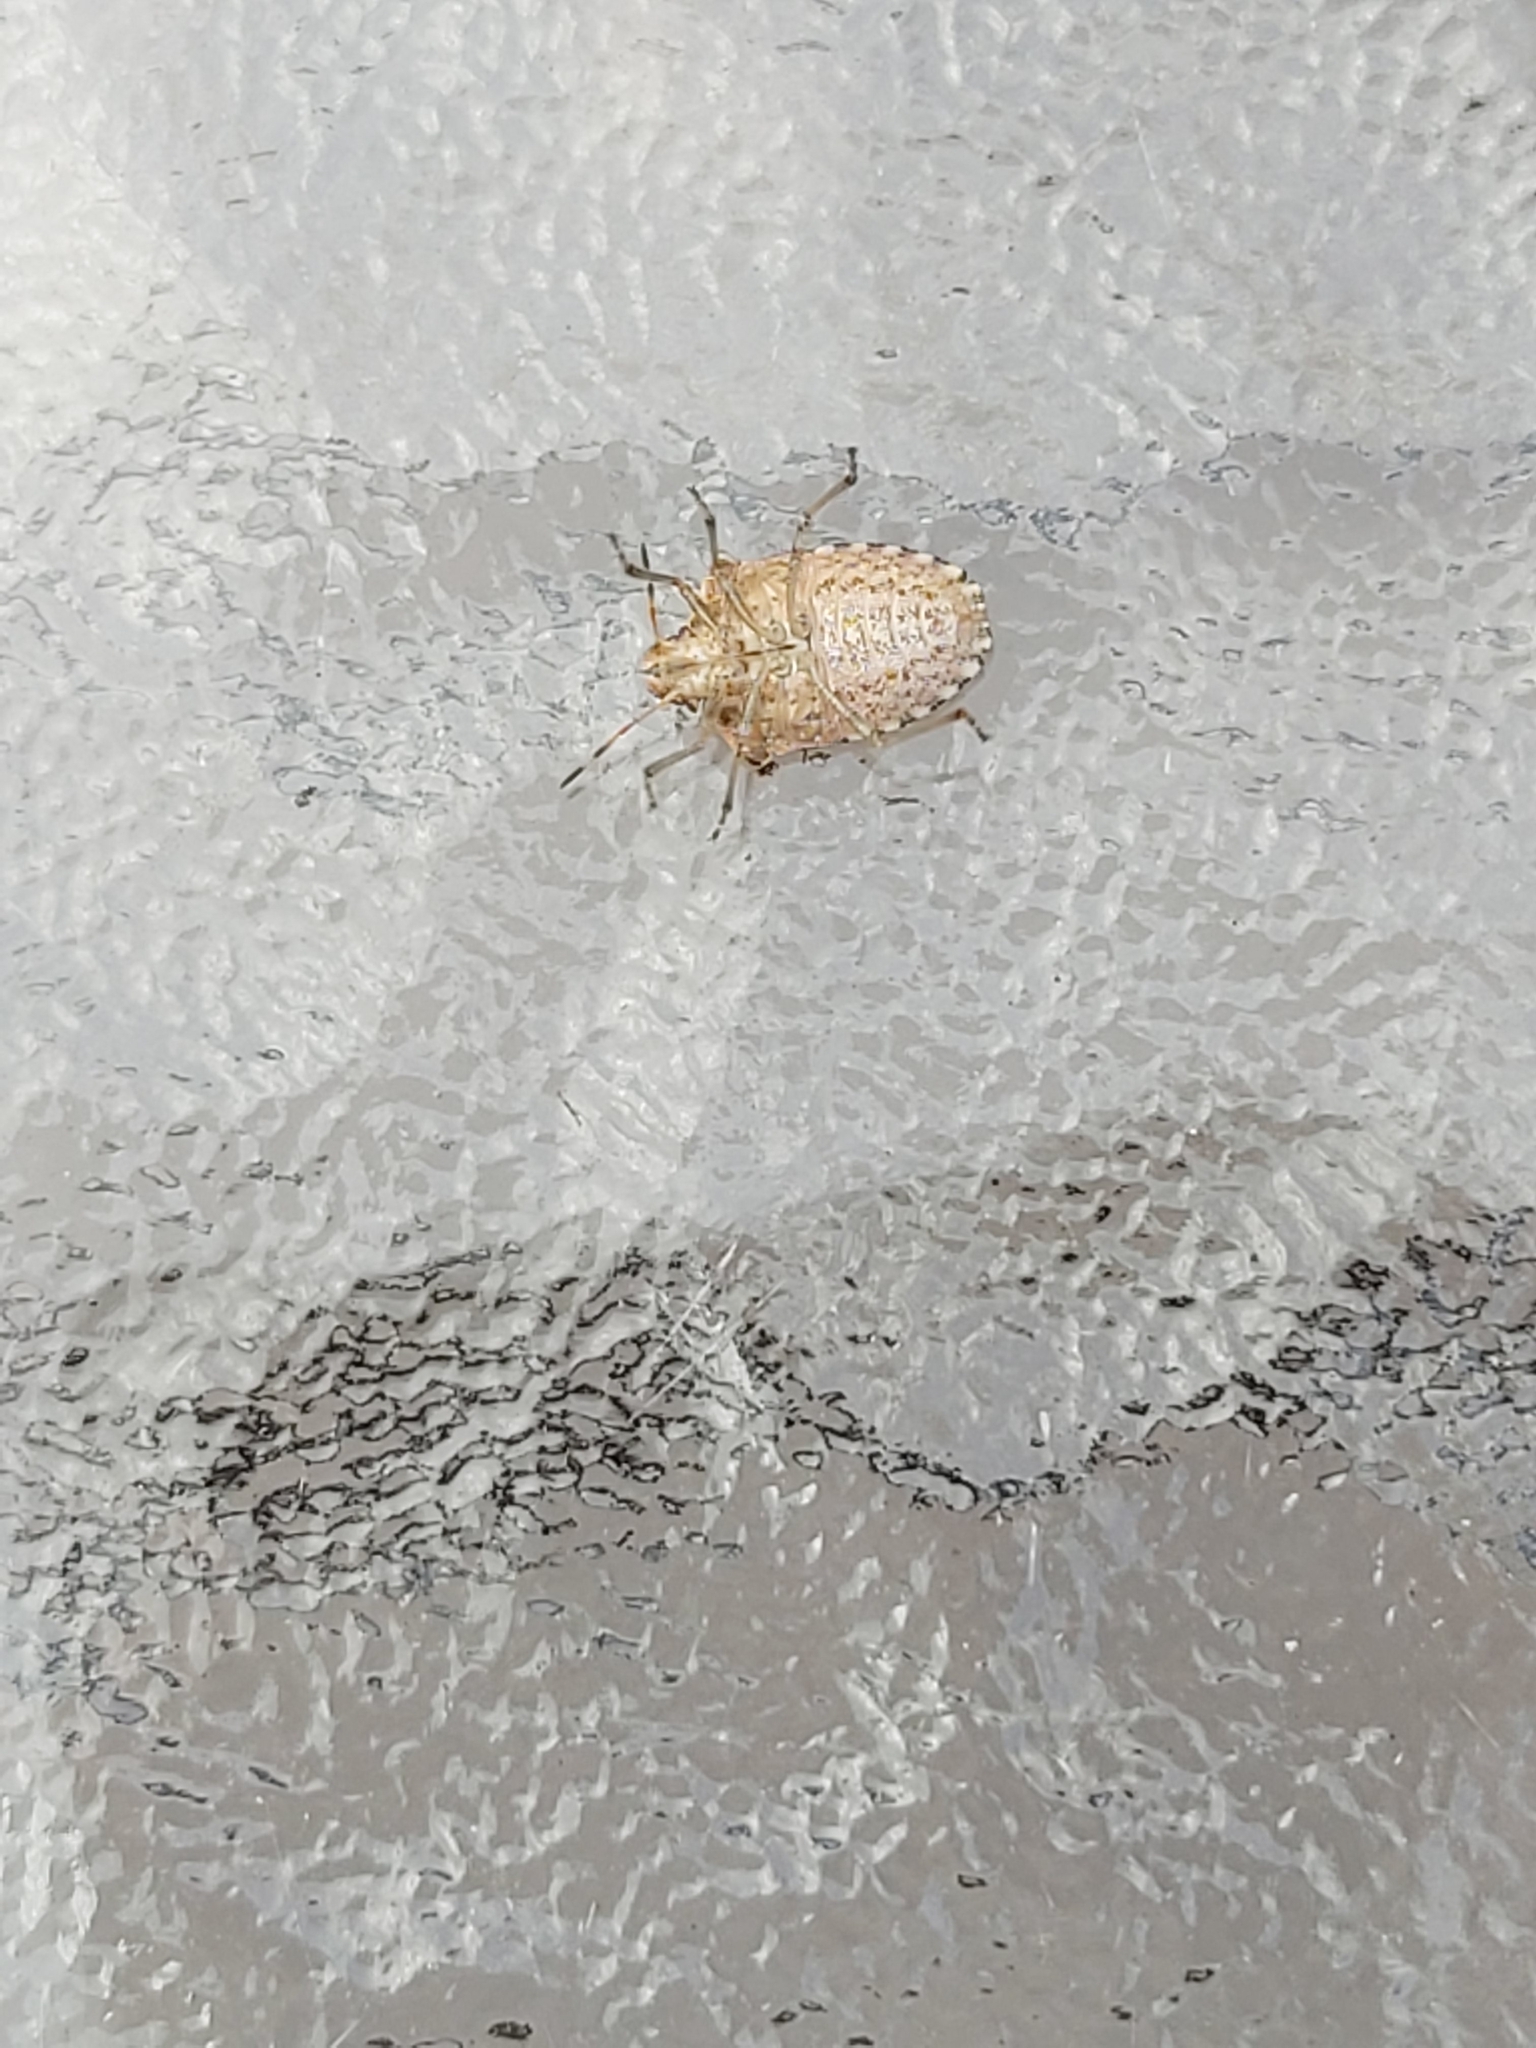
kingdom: Animalia
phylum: Arthropoda
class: Insecta
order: Hemiptera
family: Pentatomidae
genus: Holcostethus
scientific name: Holcostethus strictus
